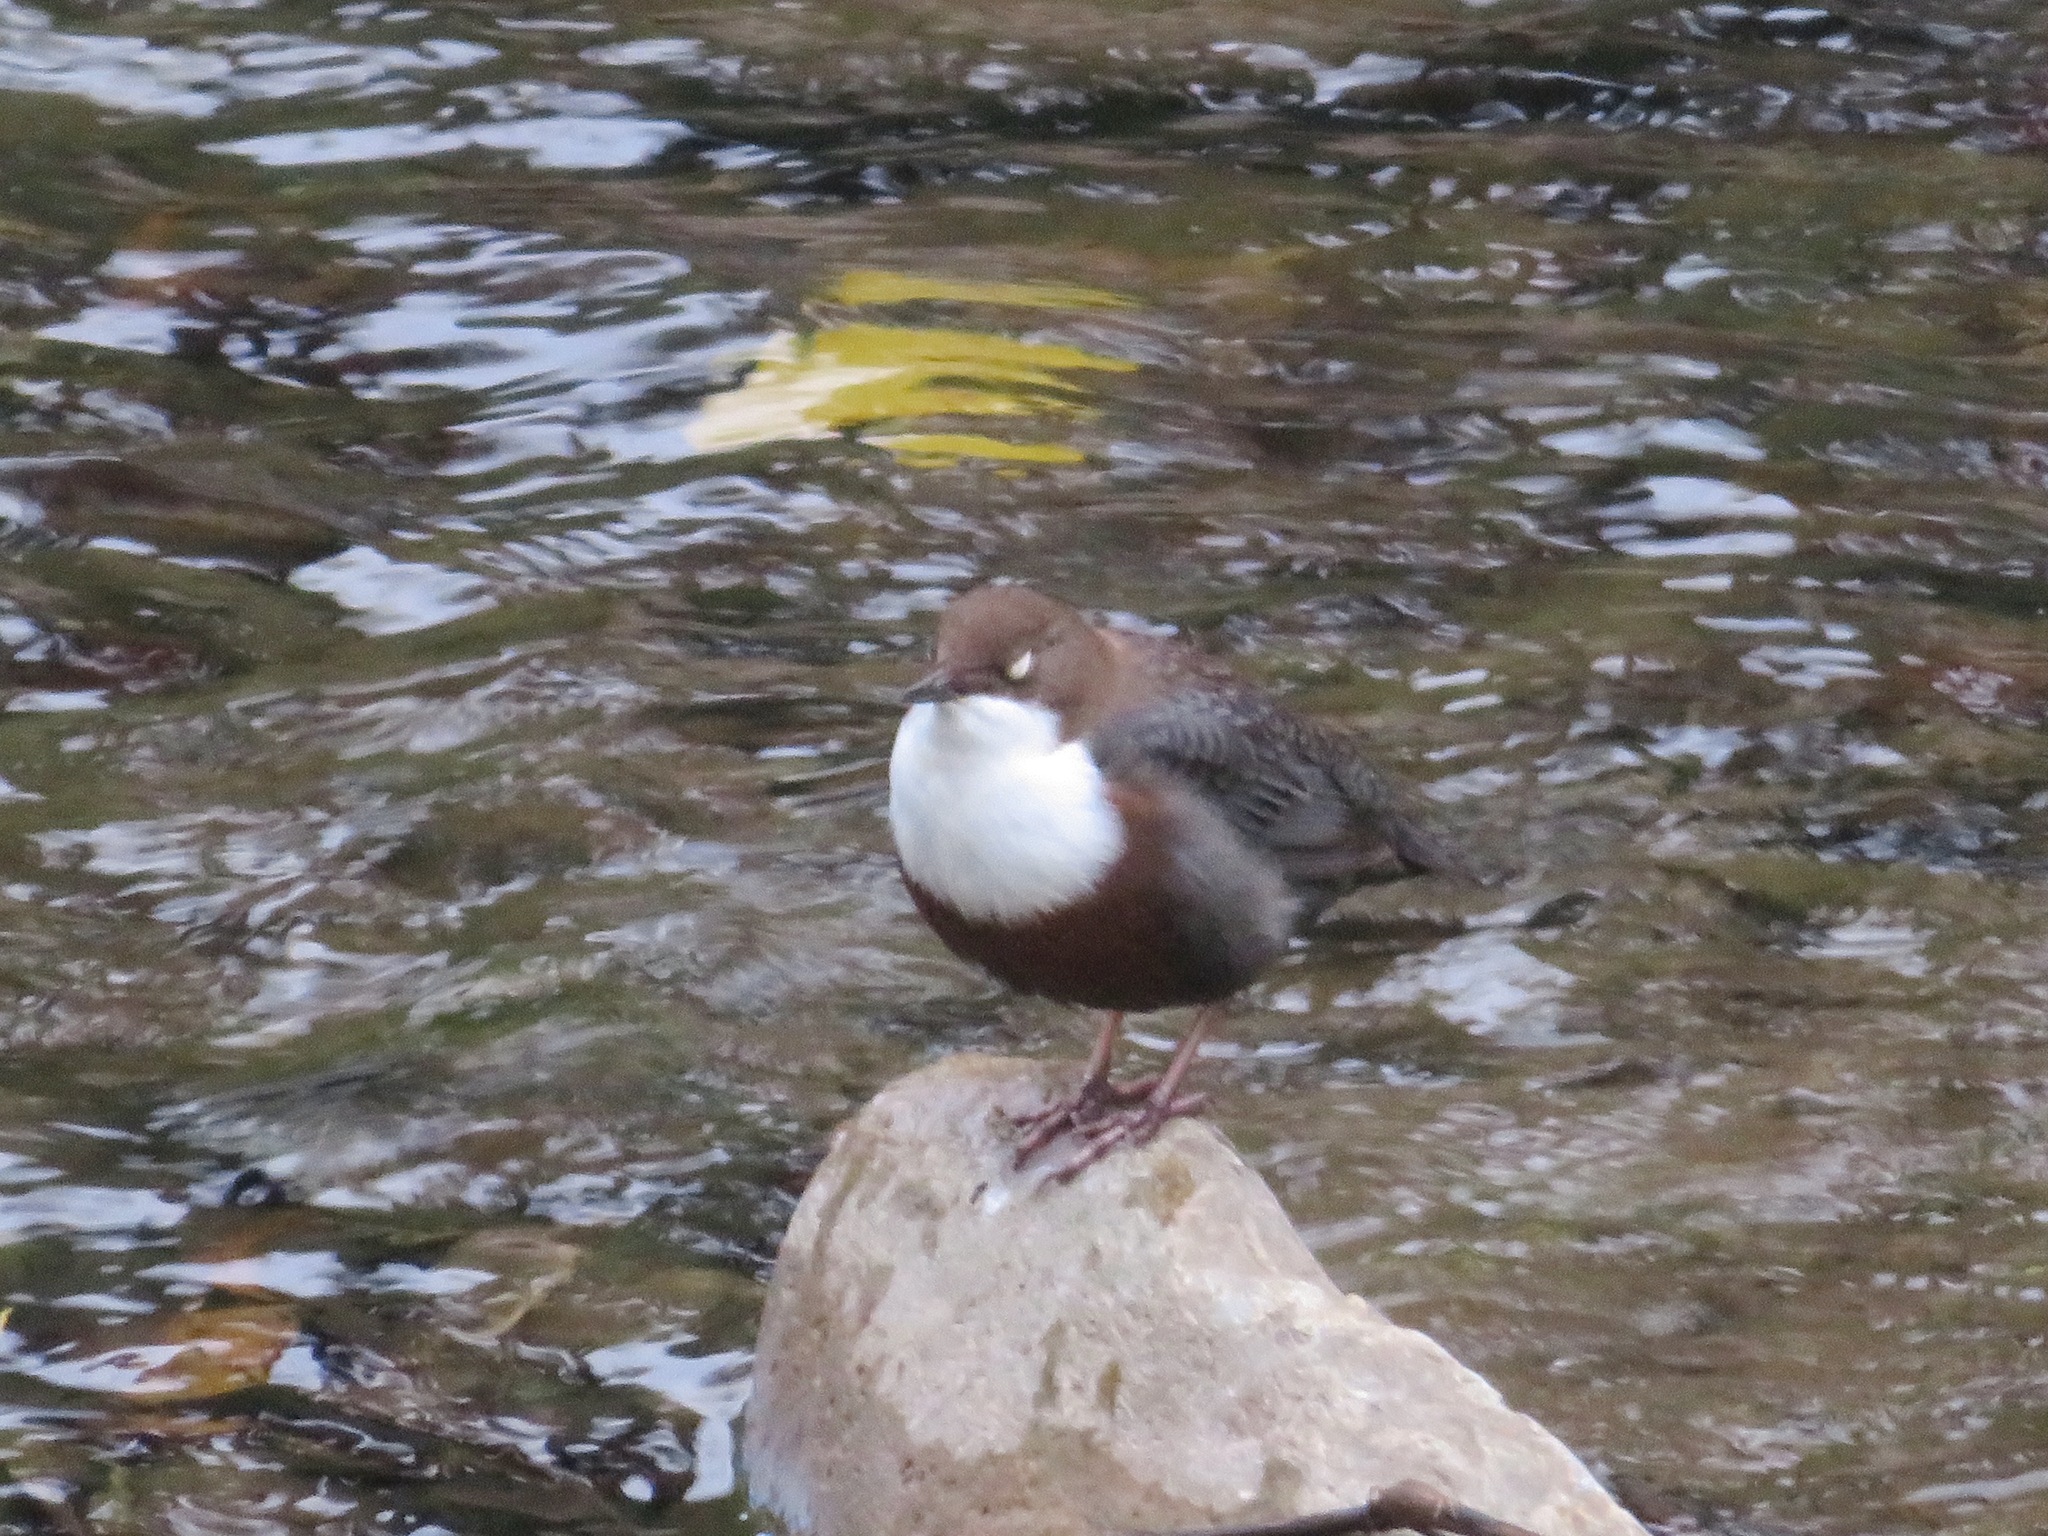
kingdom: Animalia
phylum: Chordata
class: Aves
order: Passeriformes
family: Cinclidae
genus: Cinclus
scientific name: Cinclus cinclus
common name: White-throated dipper
